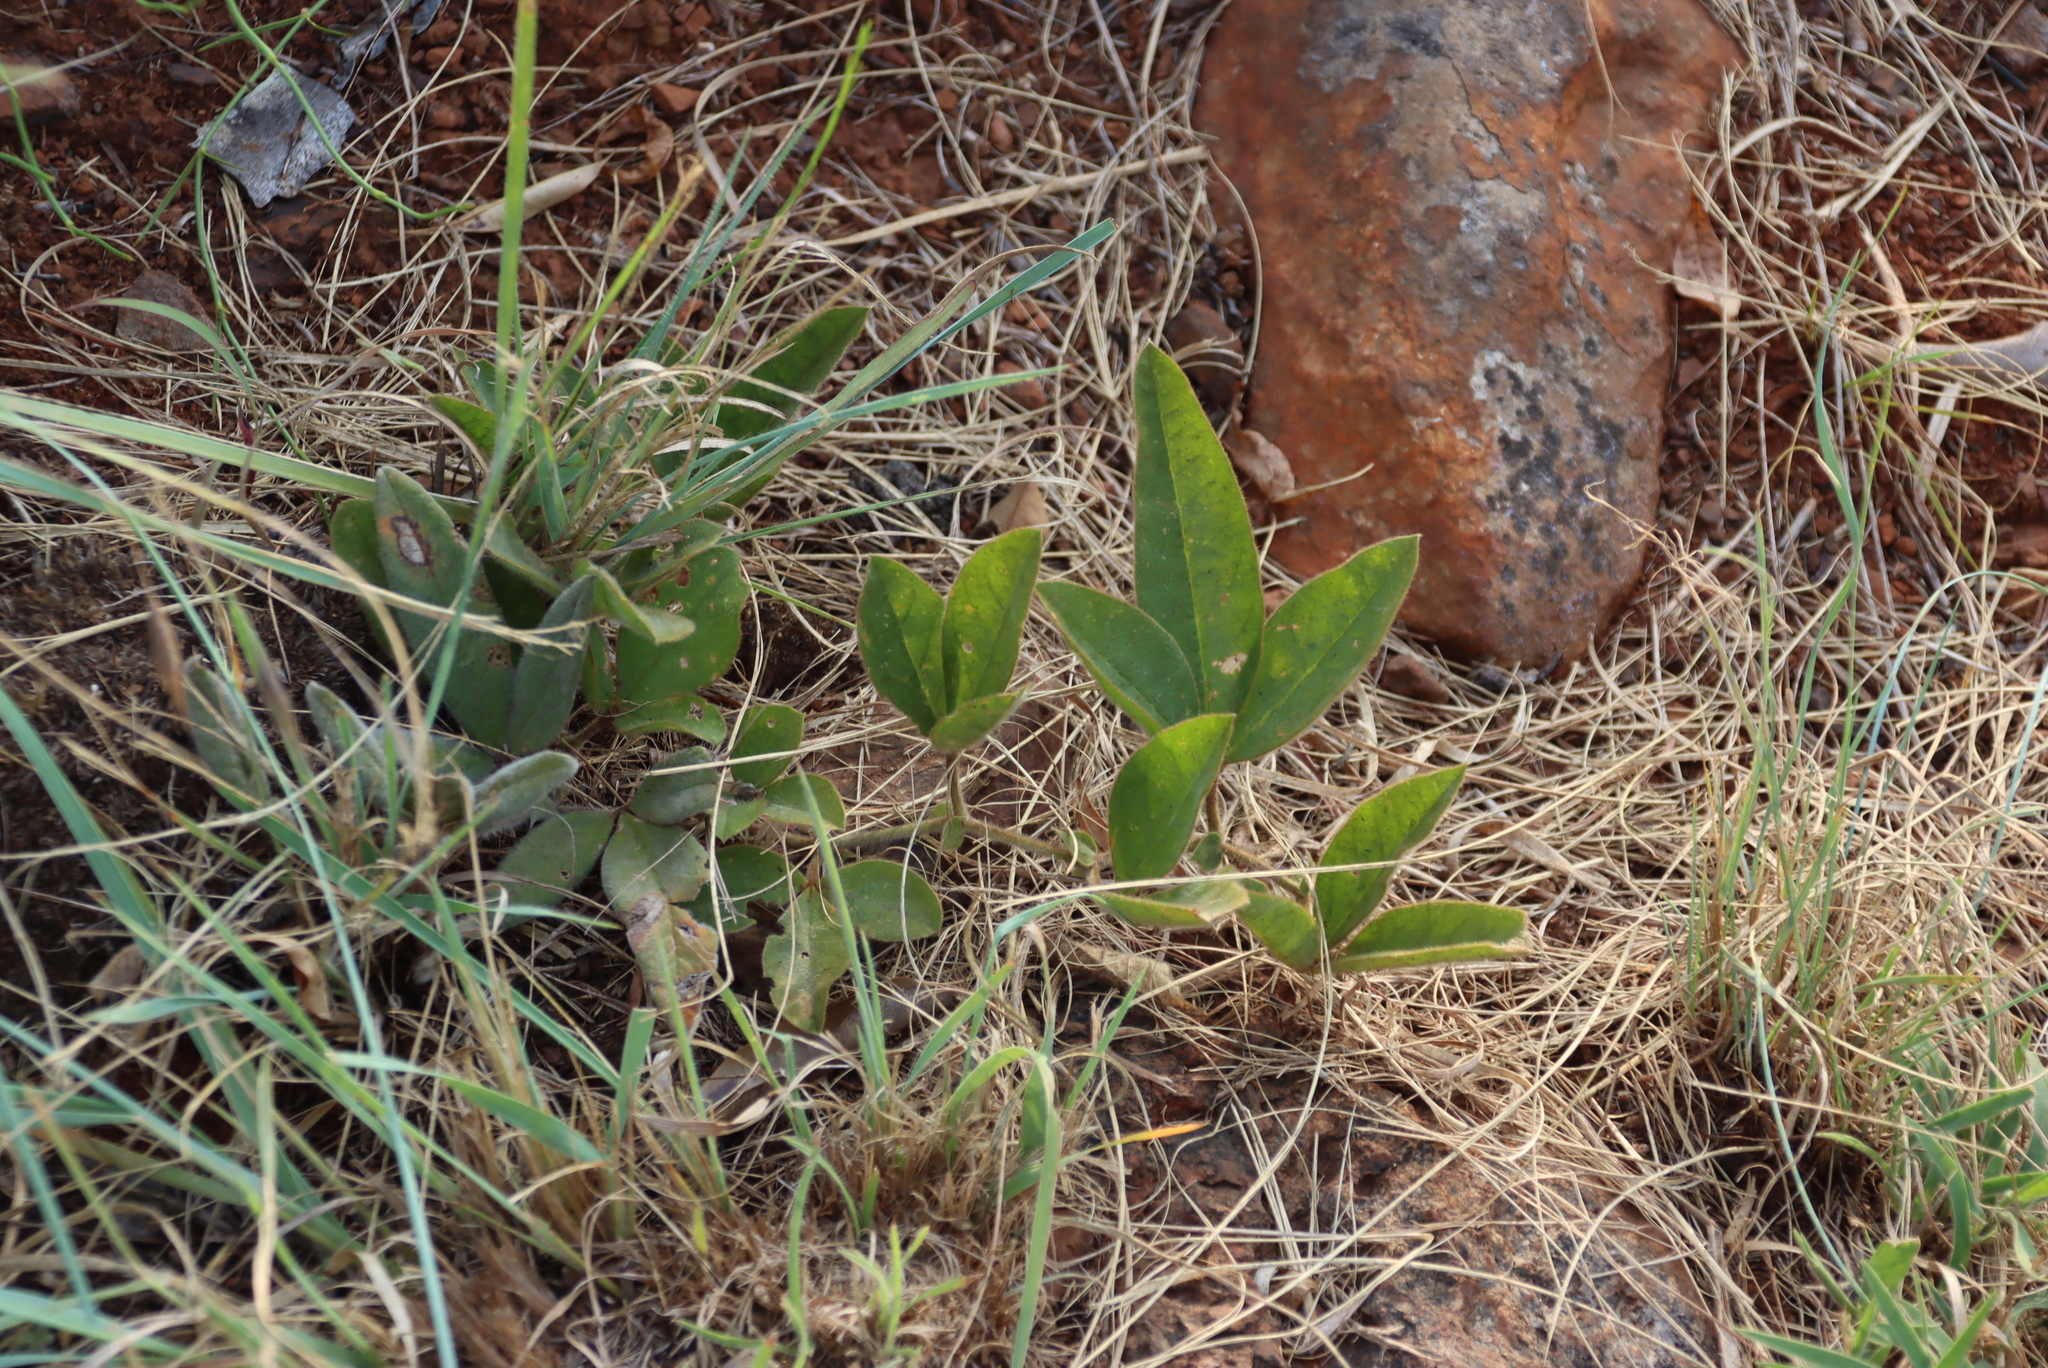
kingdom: Plantae
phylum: Tracheophyta
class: Magnoliopsida
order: Fabales
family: Fabaceae
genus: Pearsonia
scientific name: Pearsonia grandifolia
